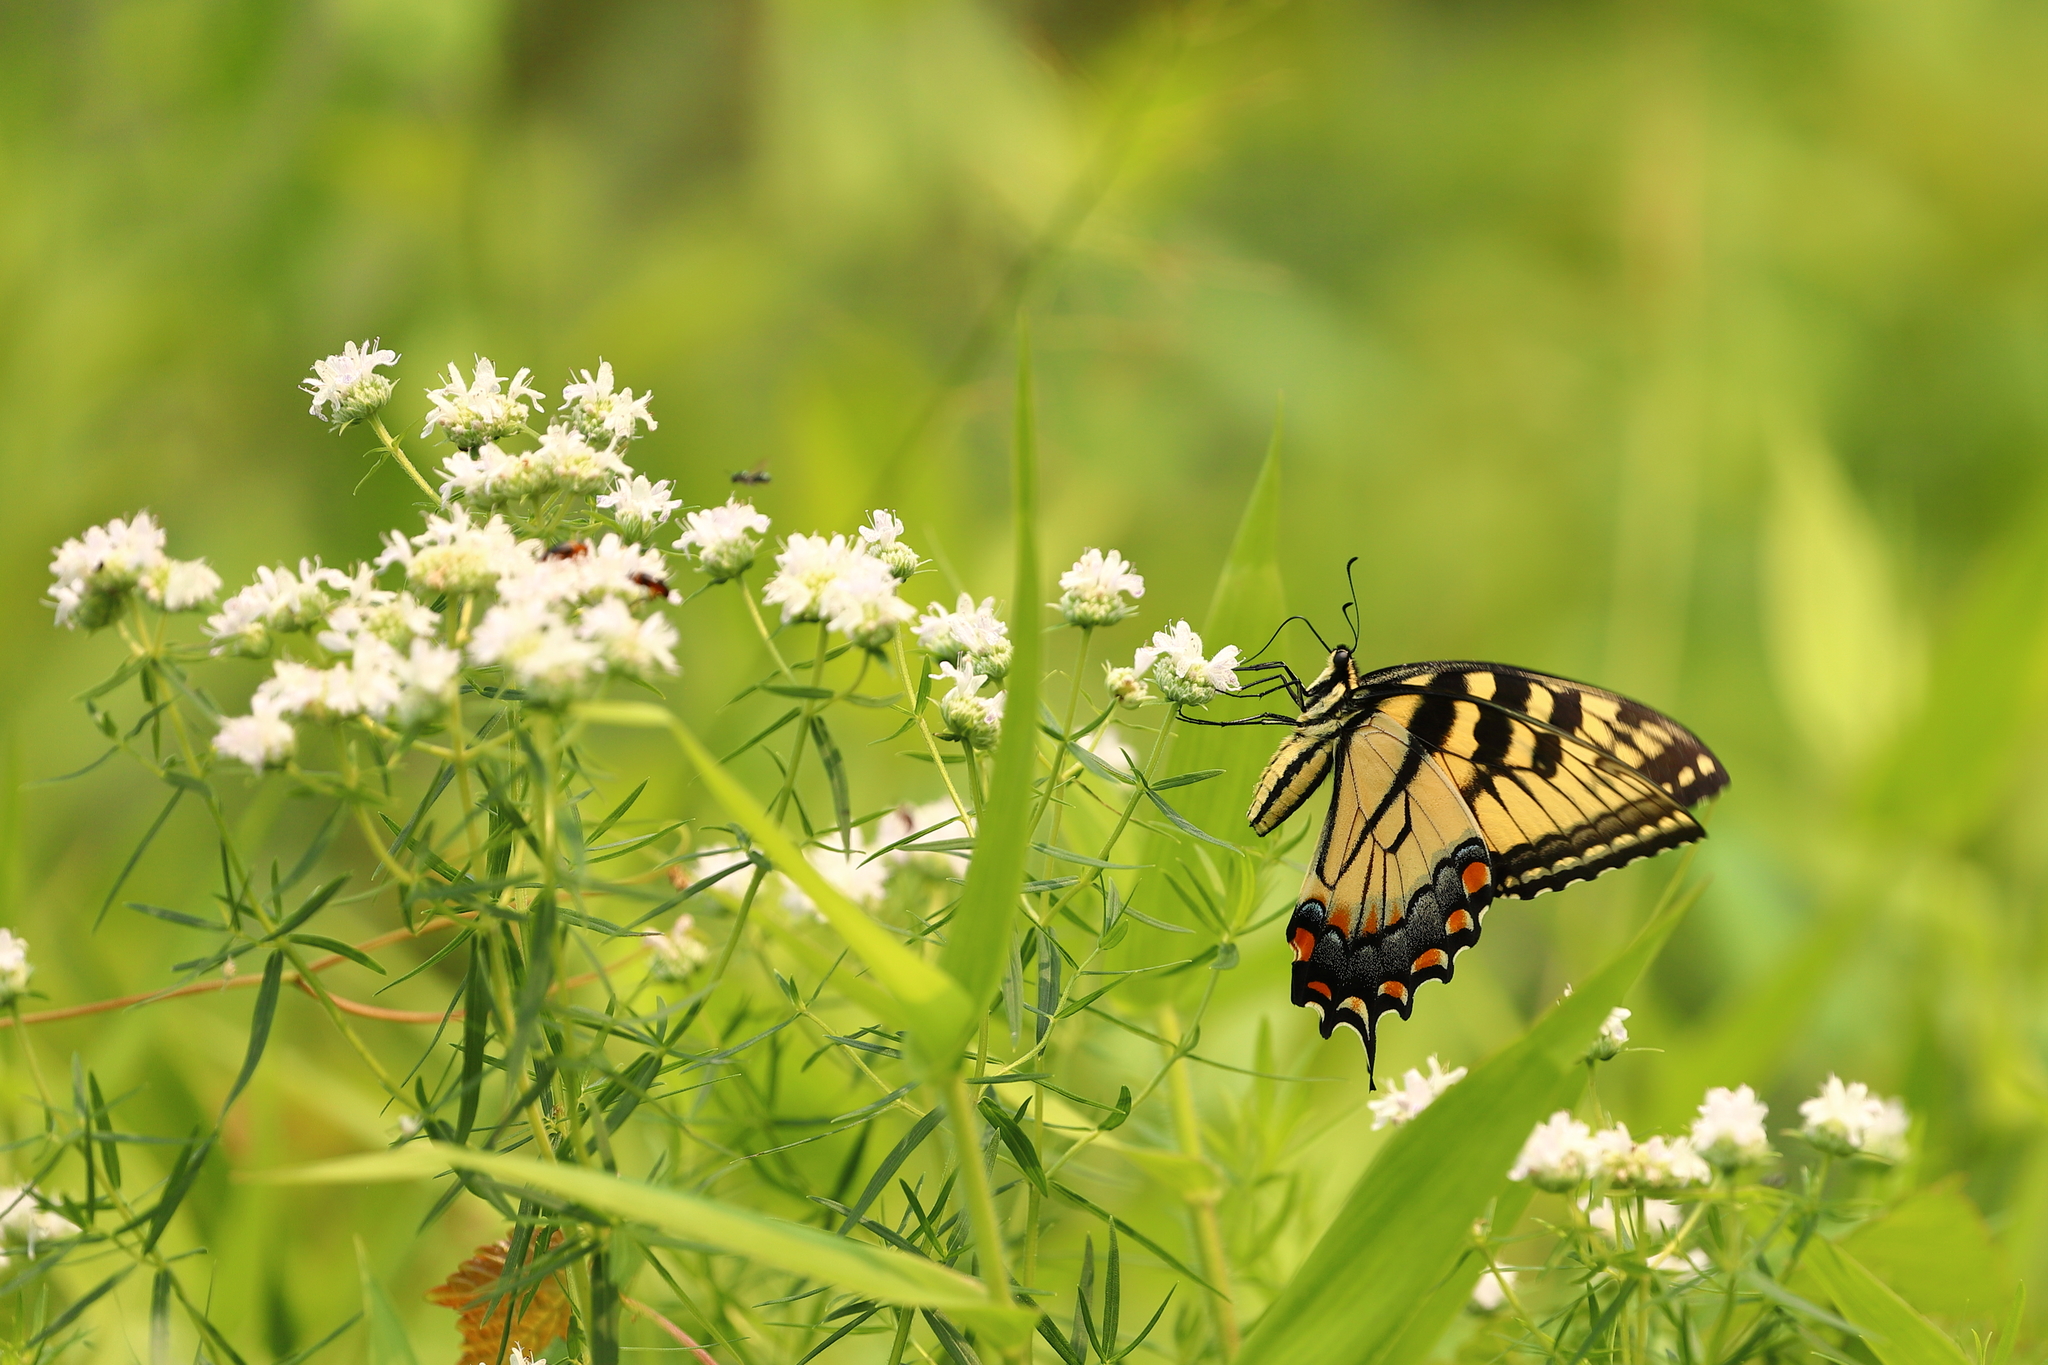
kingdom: Animalia
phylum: Arthropoda
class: Insecta
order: Lepidoptera
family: Papilionidae
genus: Papilio
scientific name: Papilio glaucus
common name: Tiger swallowtail
